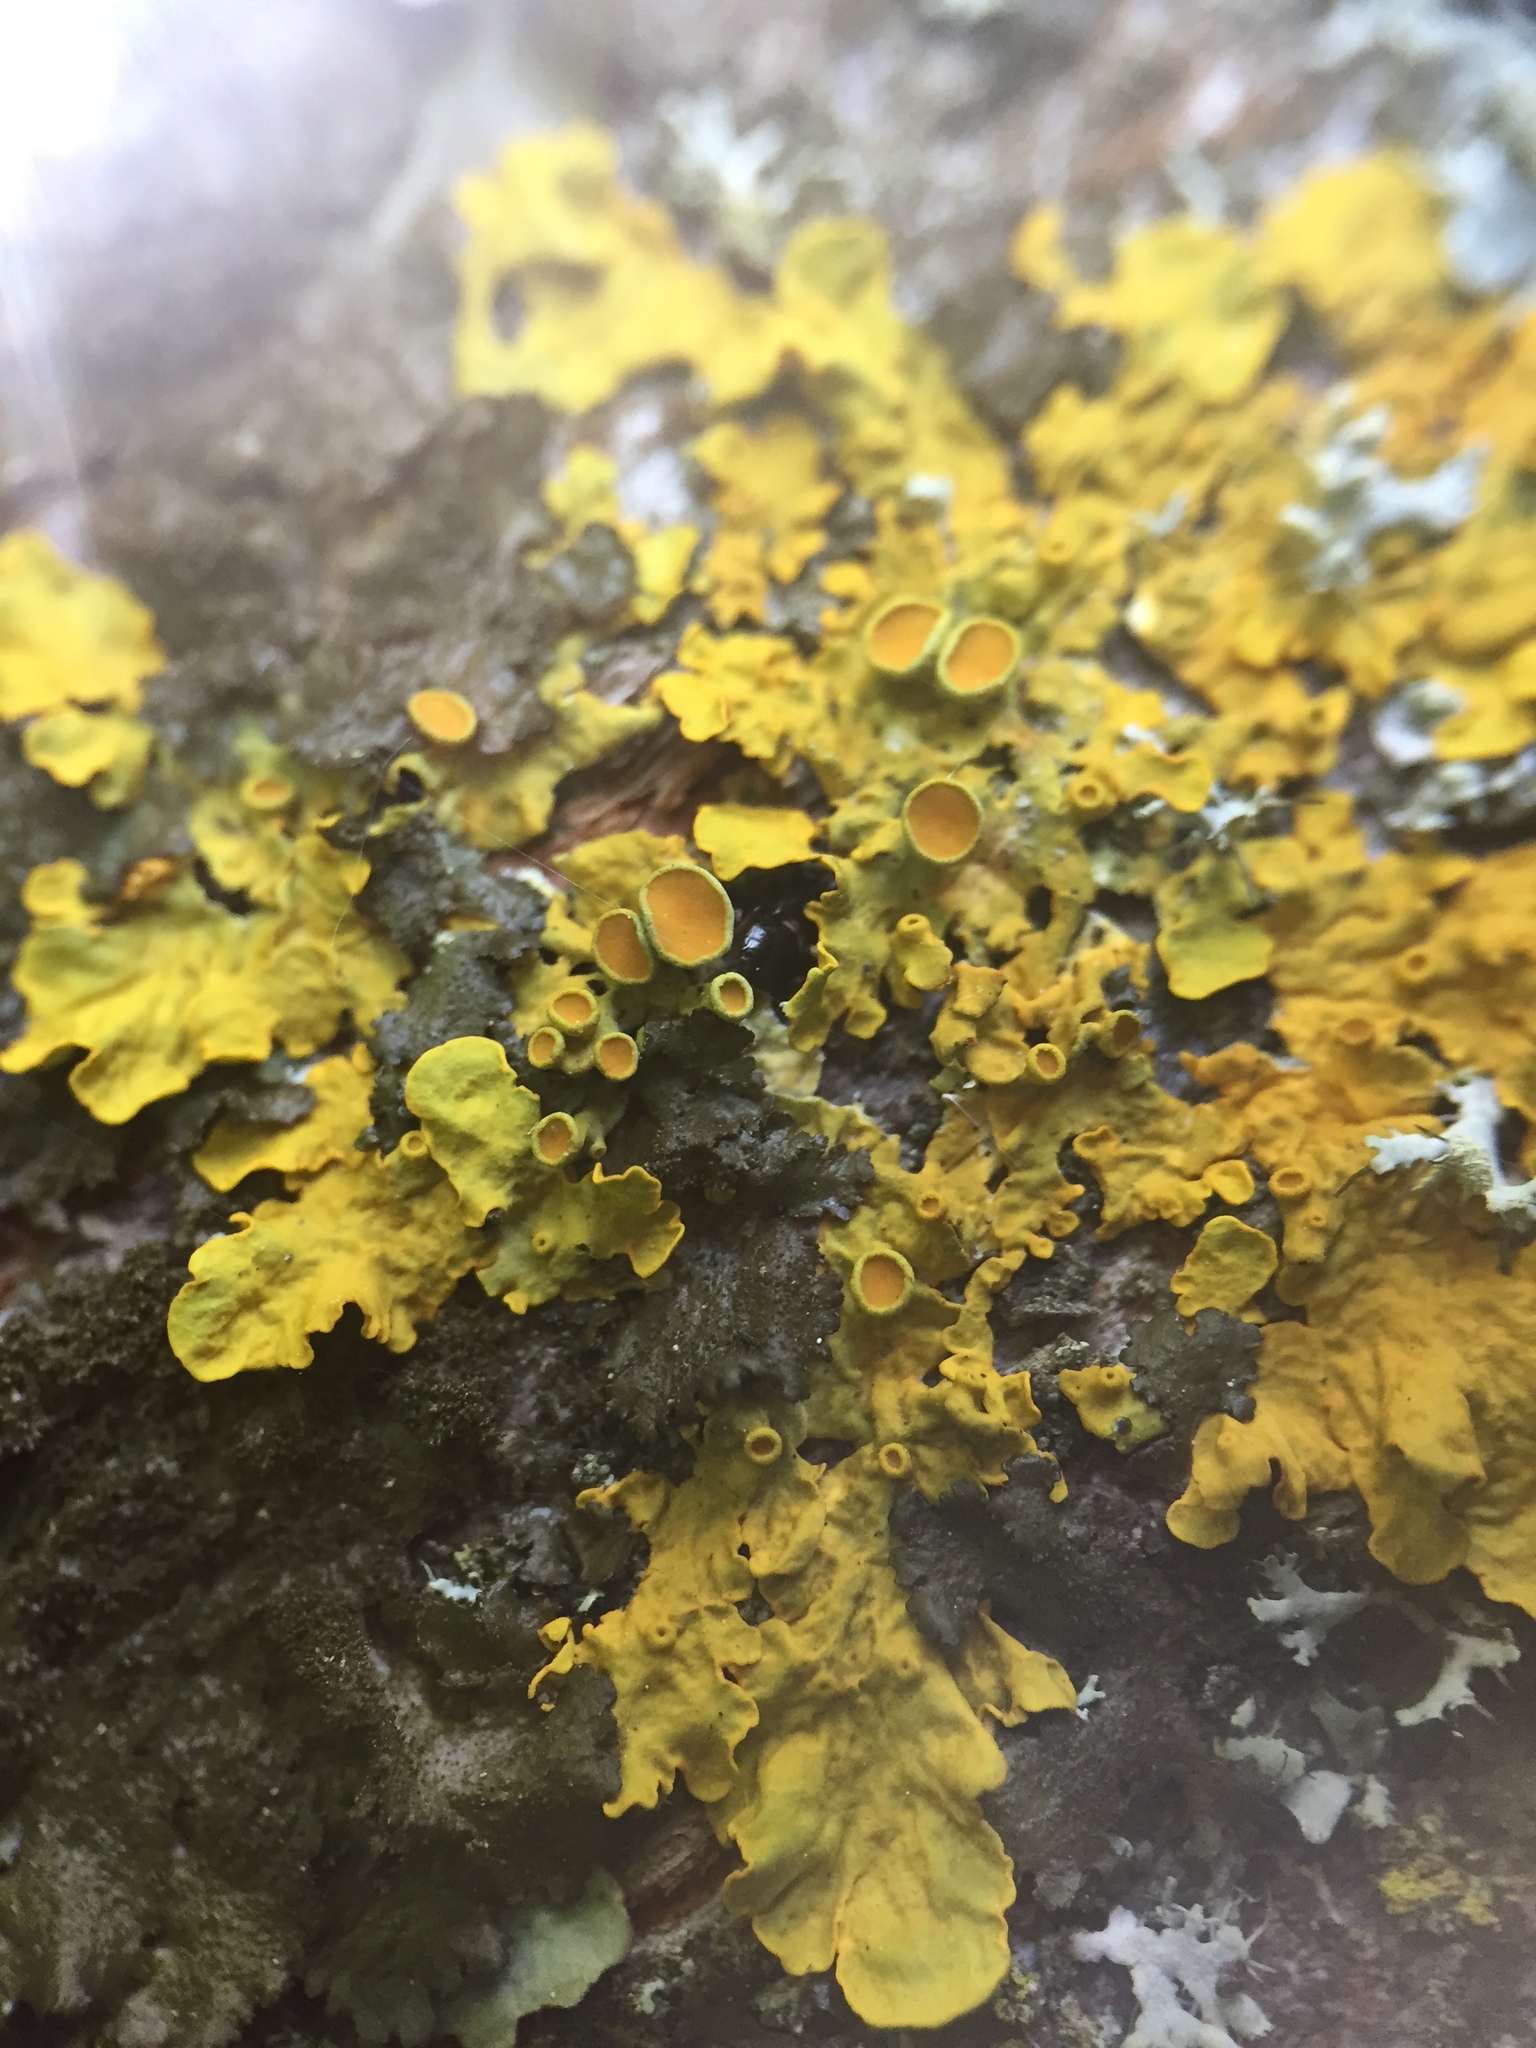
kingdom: Fungi
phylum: Ascomycota
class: Lecanoromycetes
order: Teloschistales
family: Teloschistaceae
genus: Xanthoria
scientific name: Xanthoria parietina
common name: Common orange lichen
